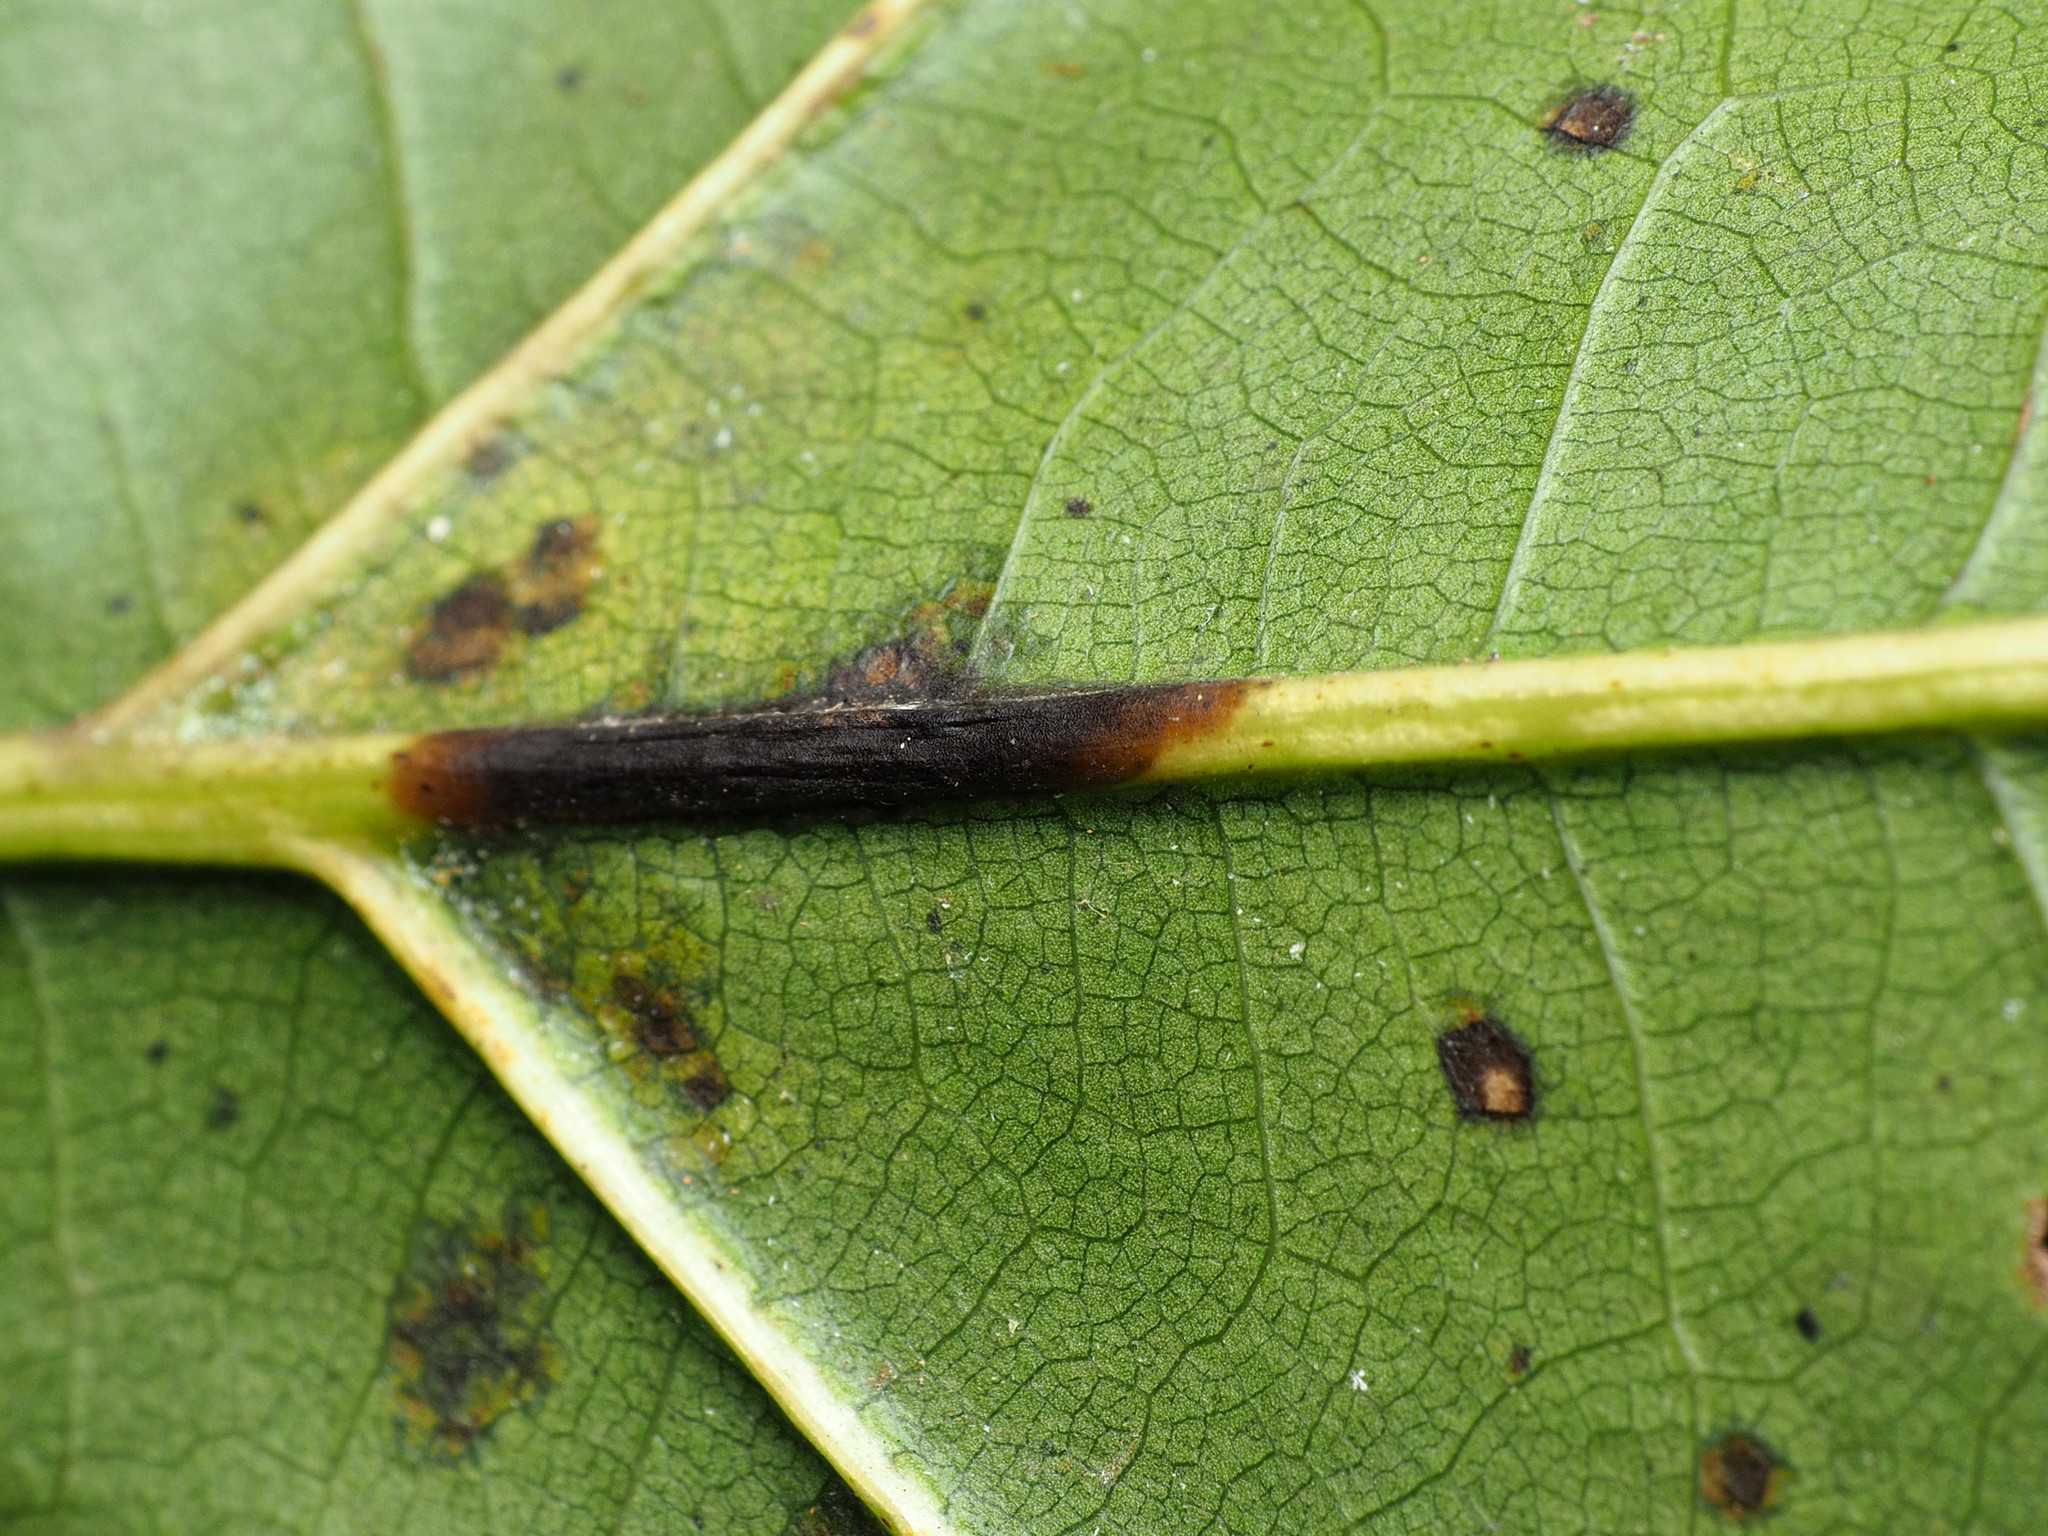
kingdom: Animalia
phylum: Arthropoda
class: Insecta
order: Hymenoptera
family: Cynipidae
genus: Zopheroteras
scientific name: Zopheroteras
